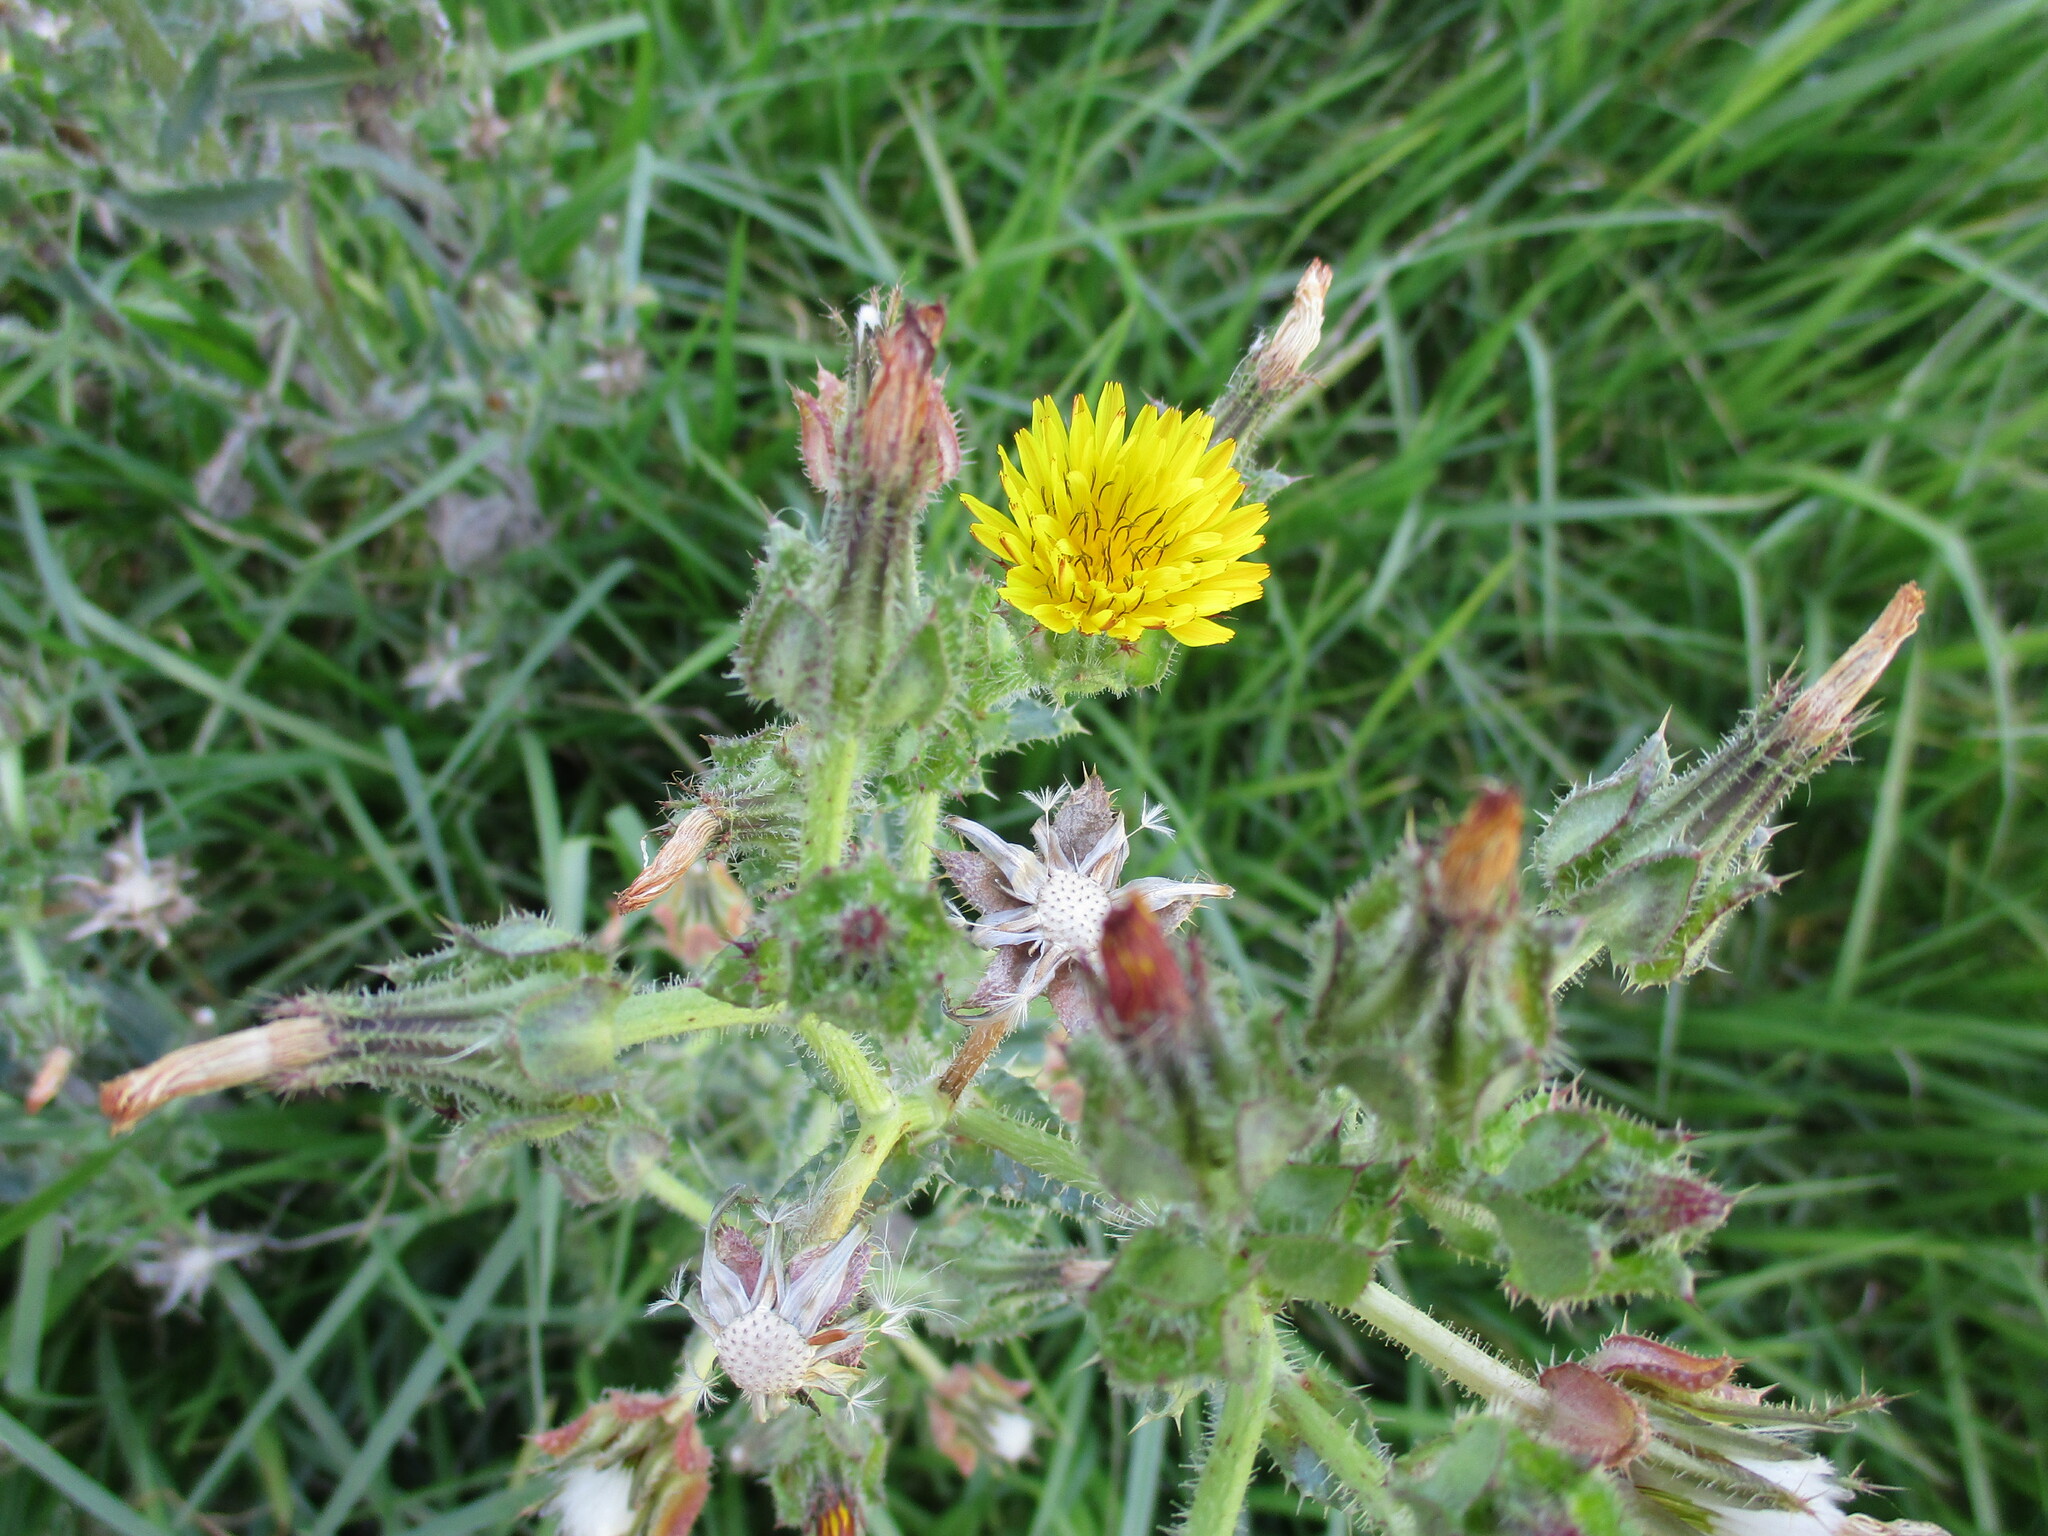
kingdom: Plantae
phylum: Tracheophyta
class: Magnoliopsida
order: Asterales
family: Asteraceae
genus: Helminthotheca
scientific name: Helminthotheca echioides
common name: Ox-tongue
